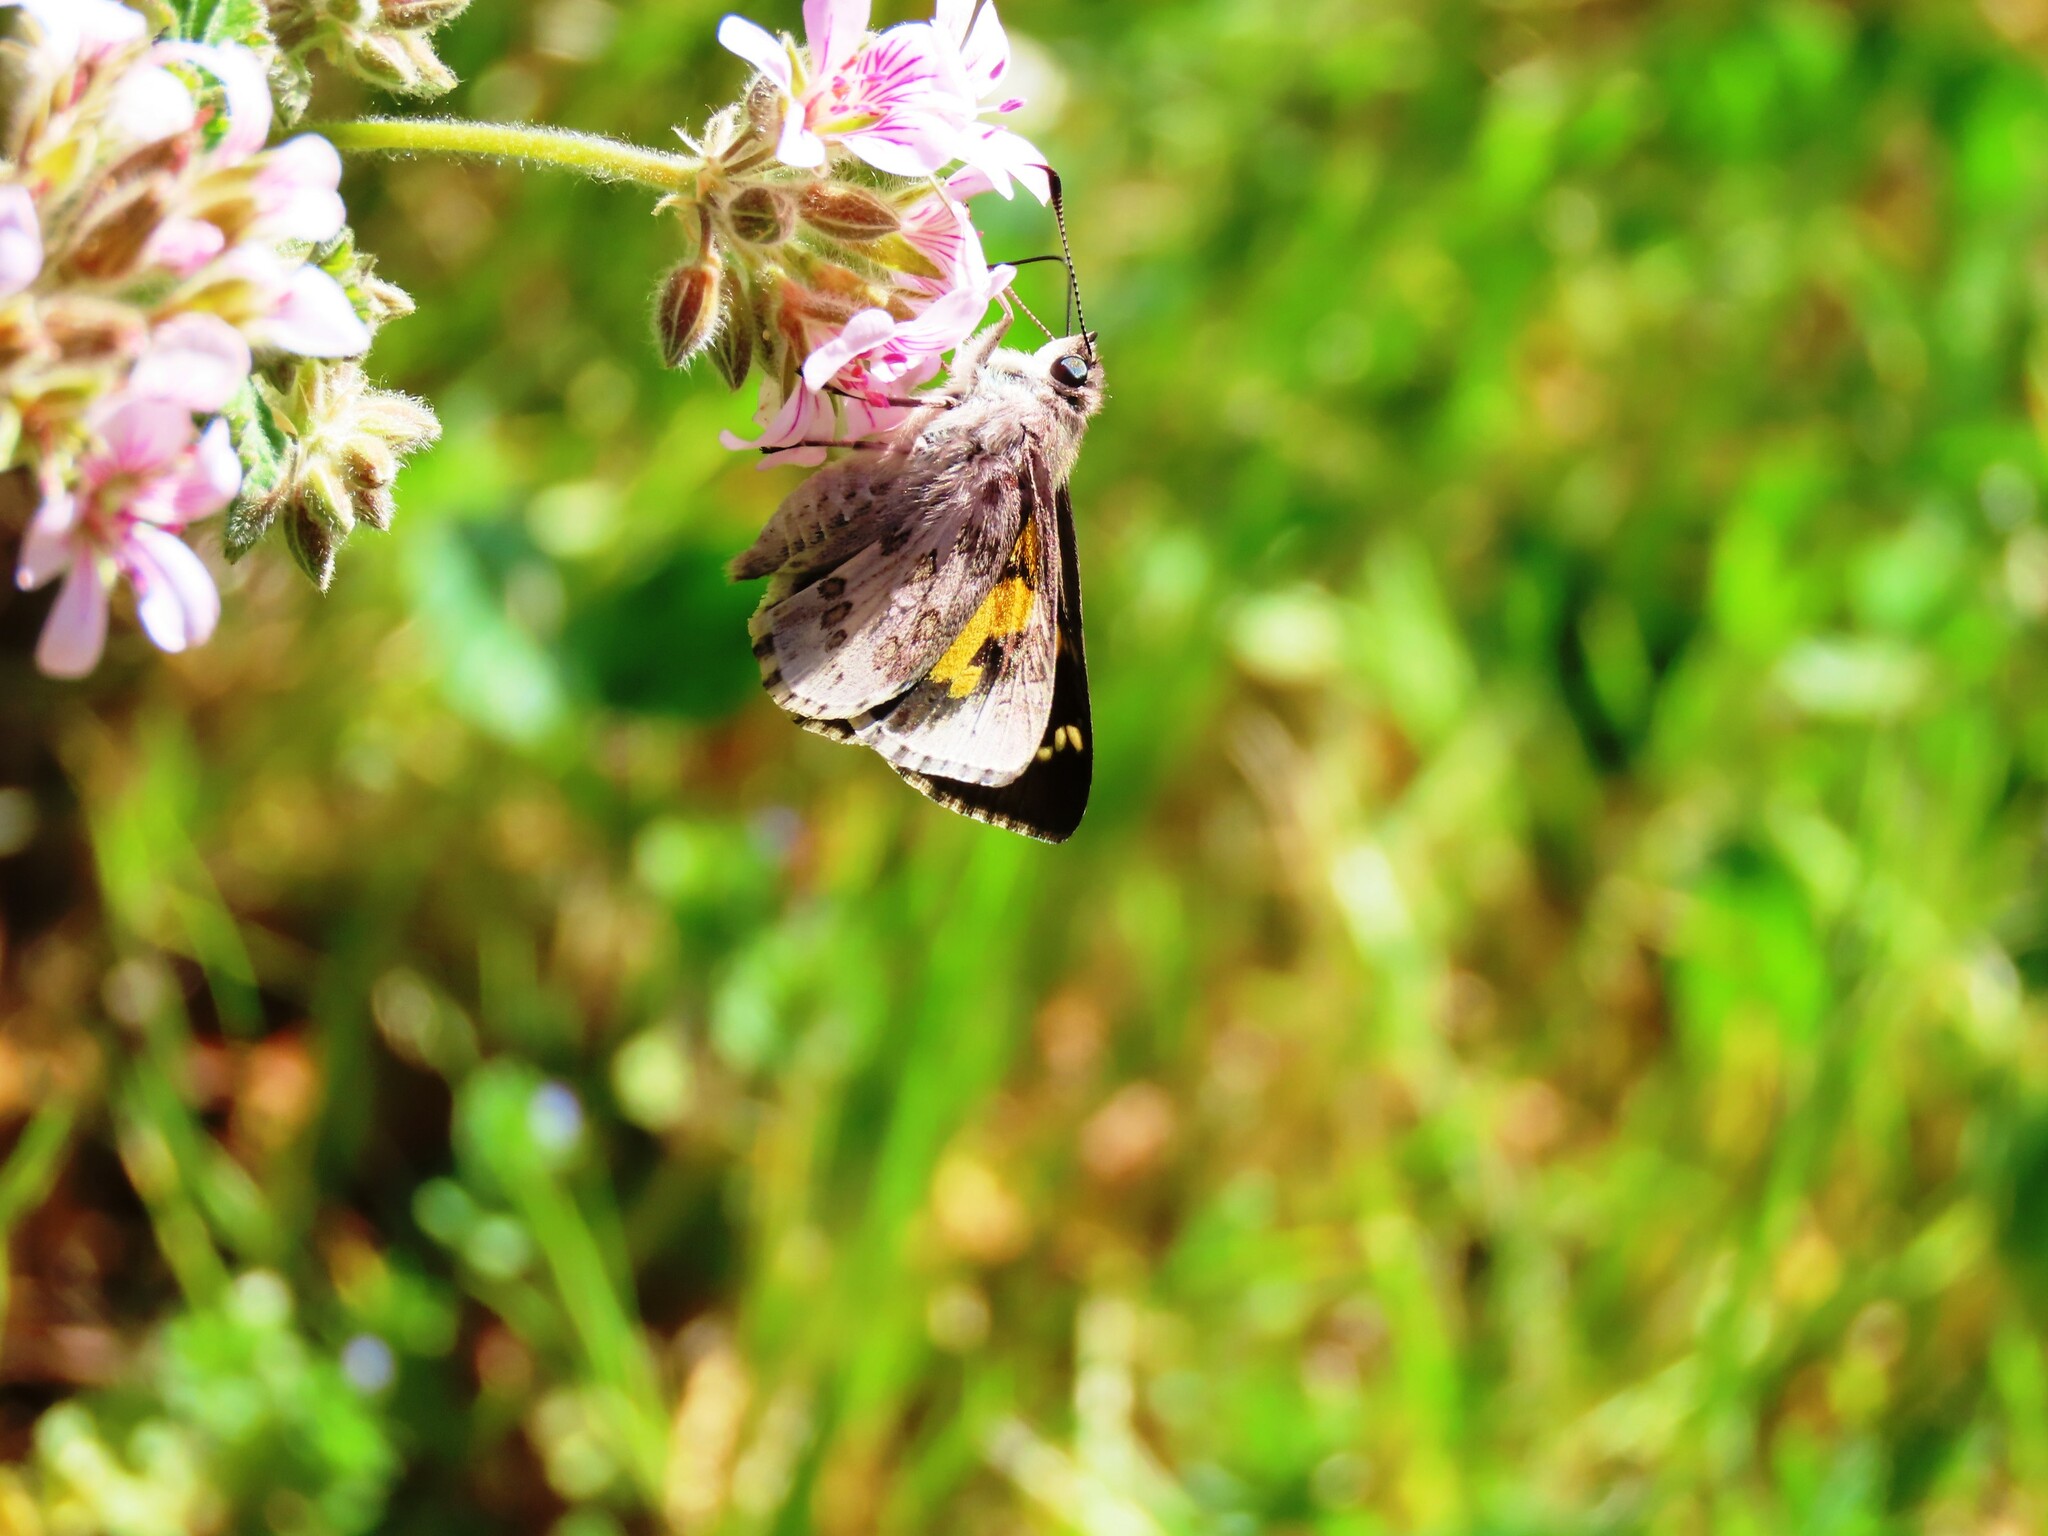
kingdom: Animalia
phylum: Arthropoda
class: Insecta
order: Lepidoptera
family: Hesperiidae
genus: Trapezites
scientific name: Trapezites phigalioides
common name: Montane ochre
